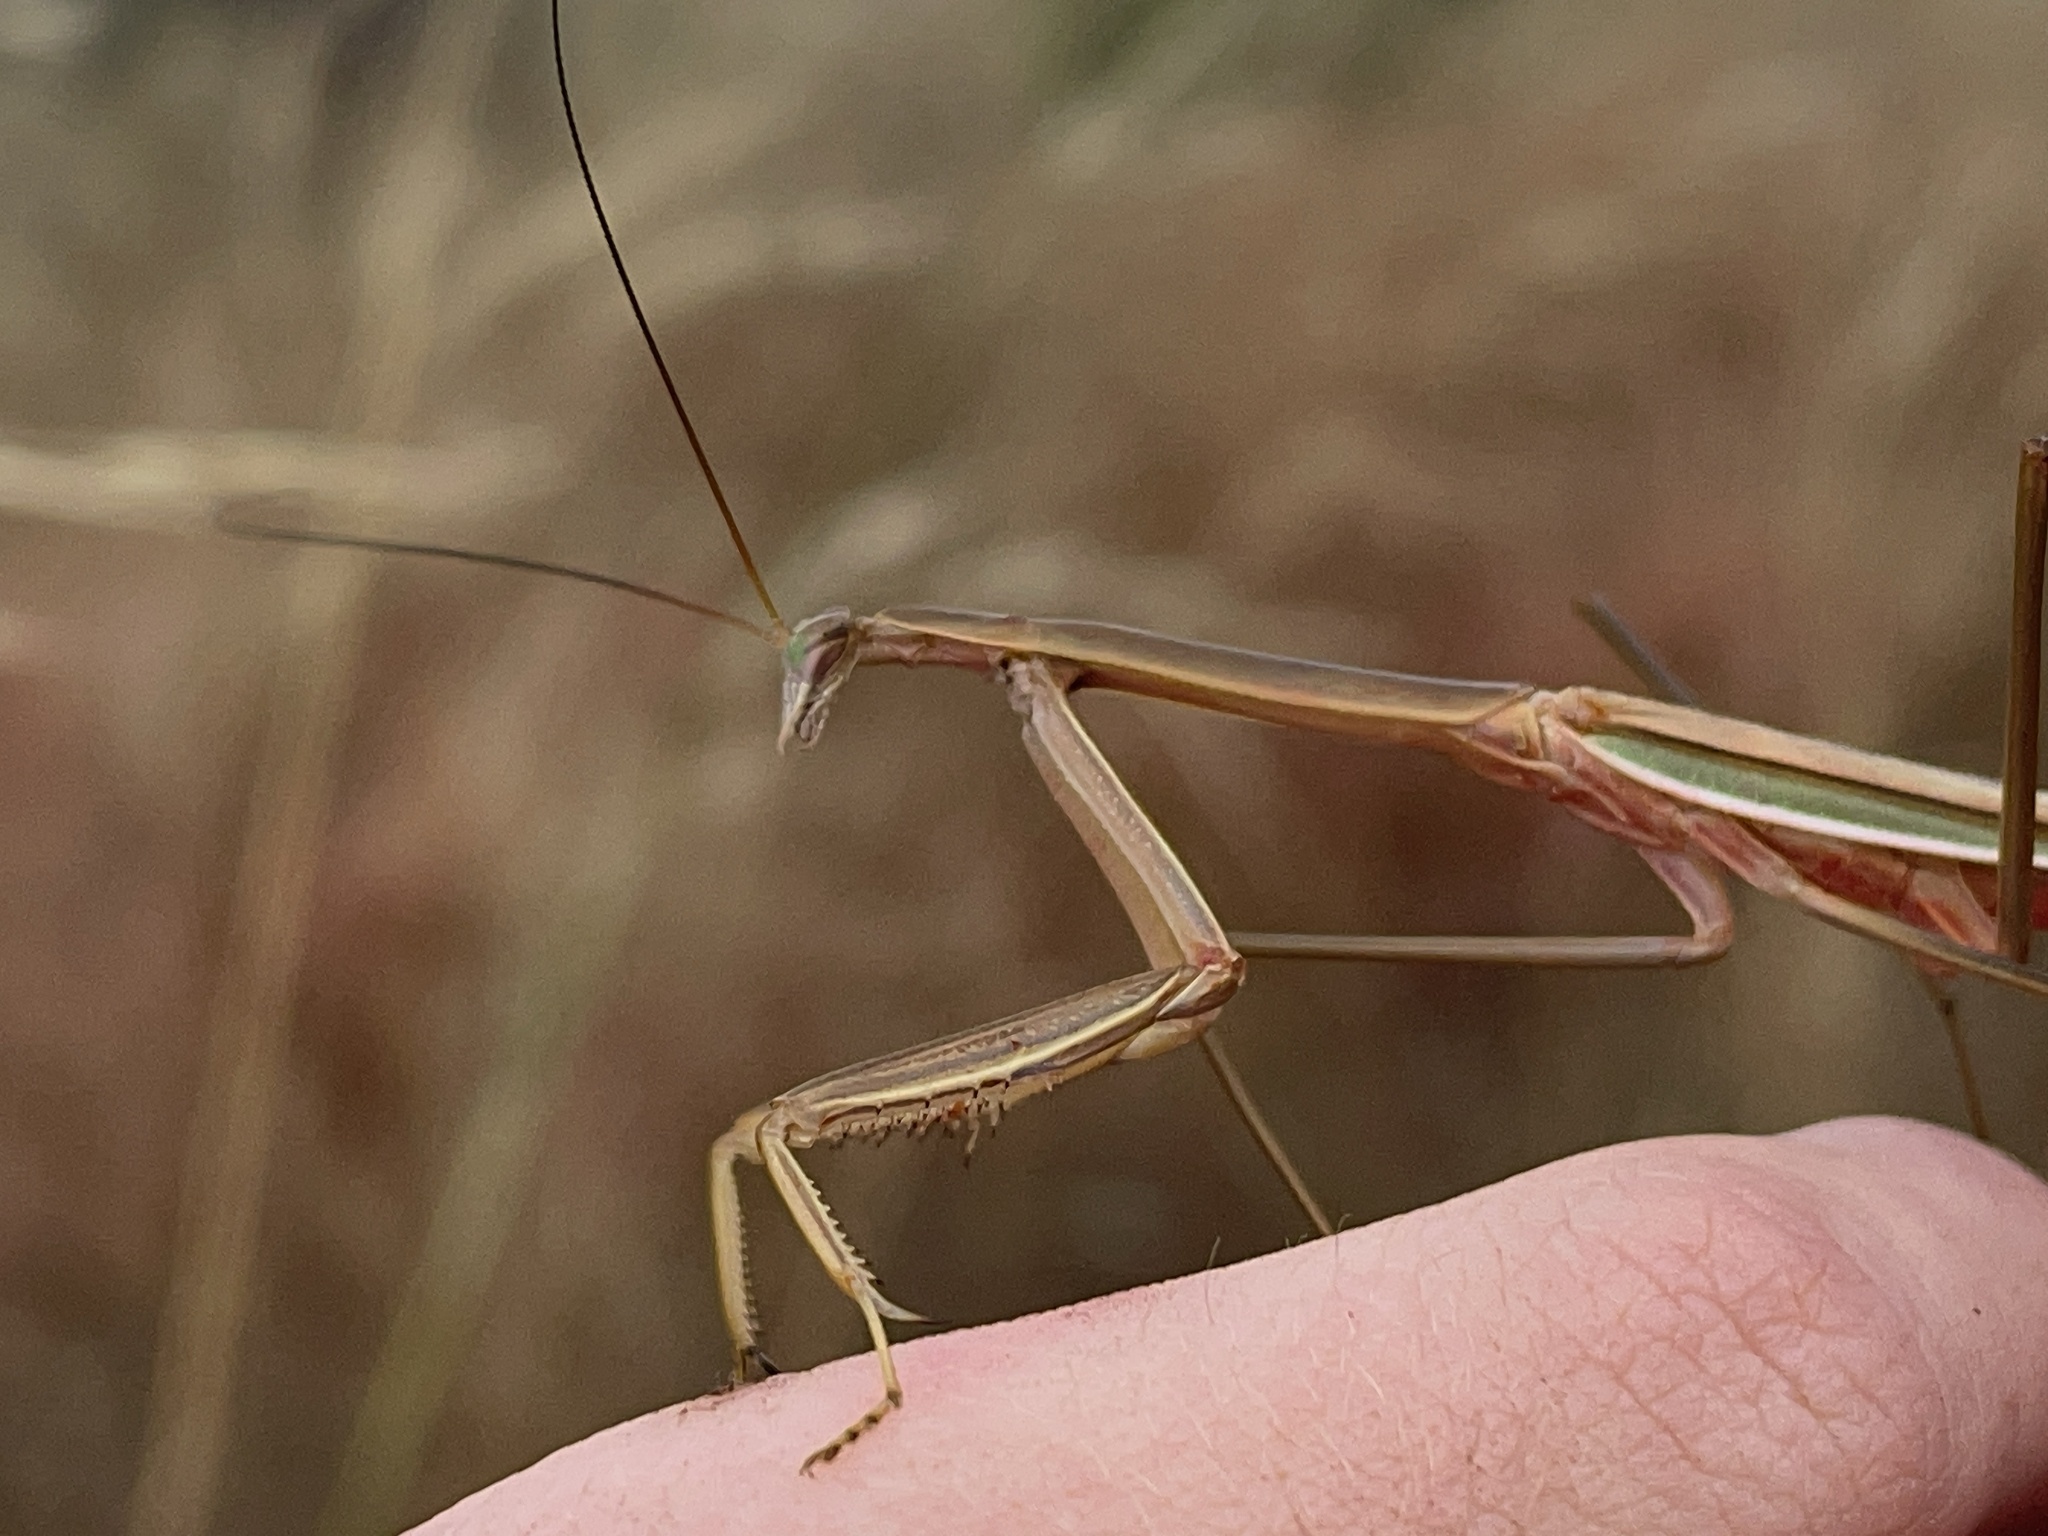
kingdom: Animalia
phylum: Arthropoda
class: Insecta
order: Mantodea
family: Mantidae
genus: Tenodera
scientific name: Tenodera australasiae
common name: Purple-winged mantis
